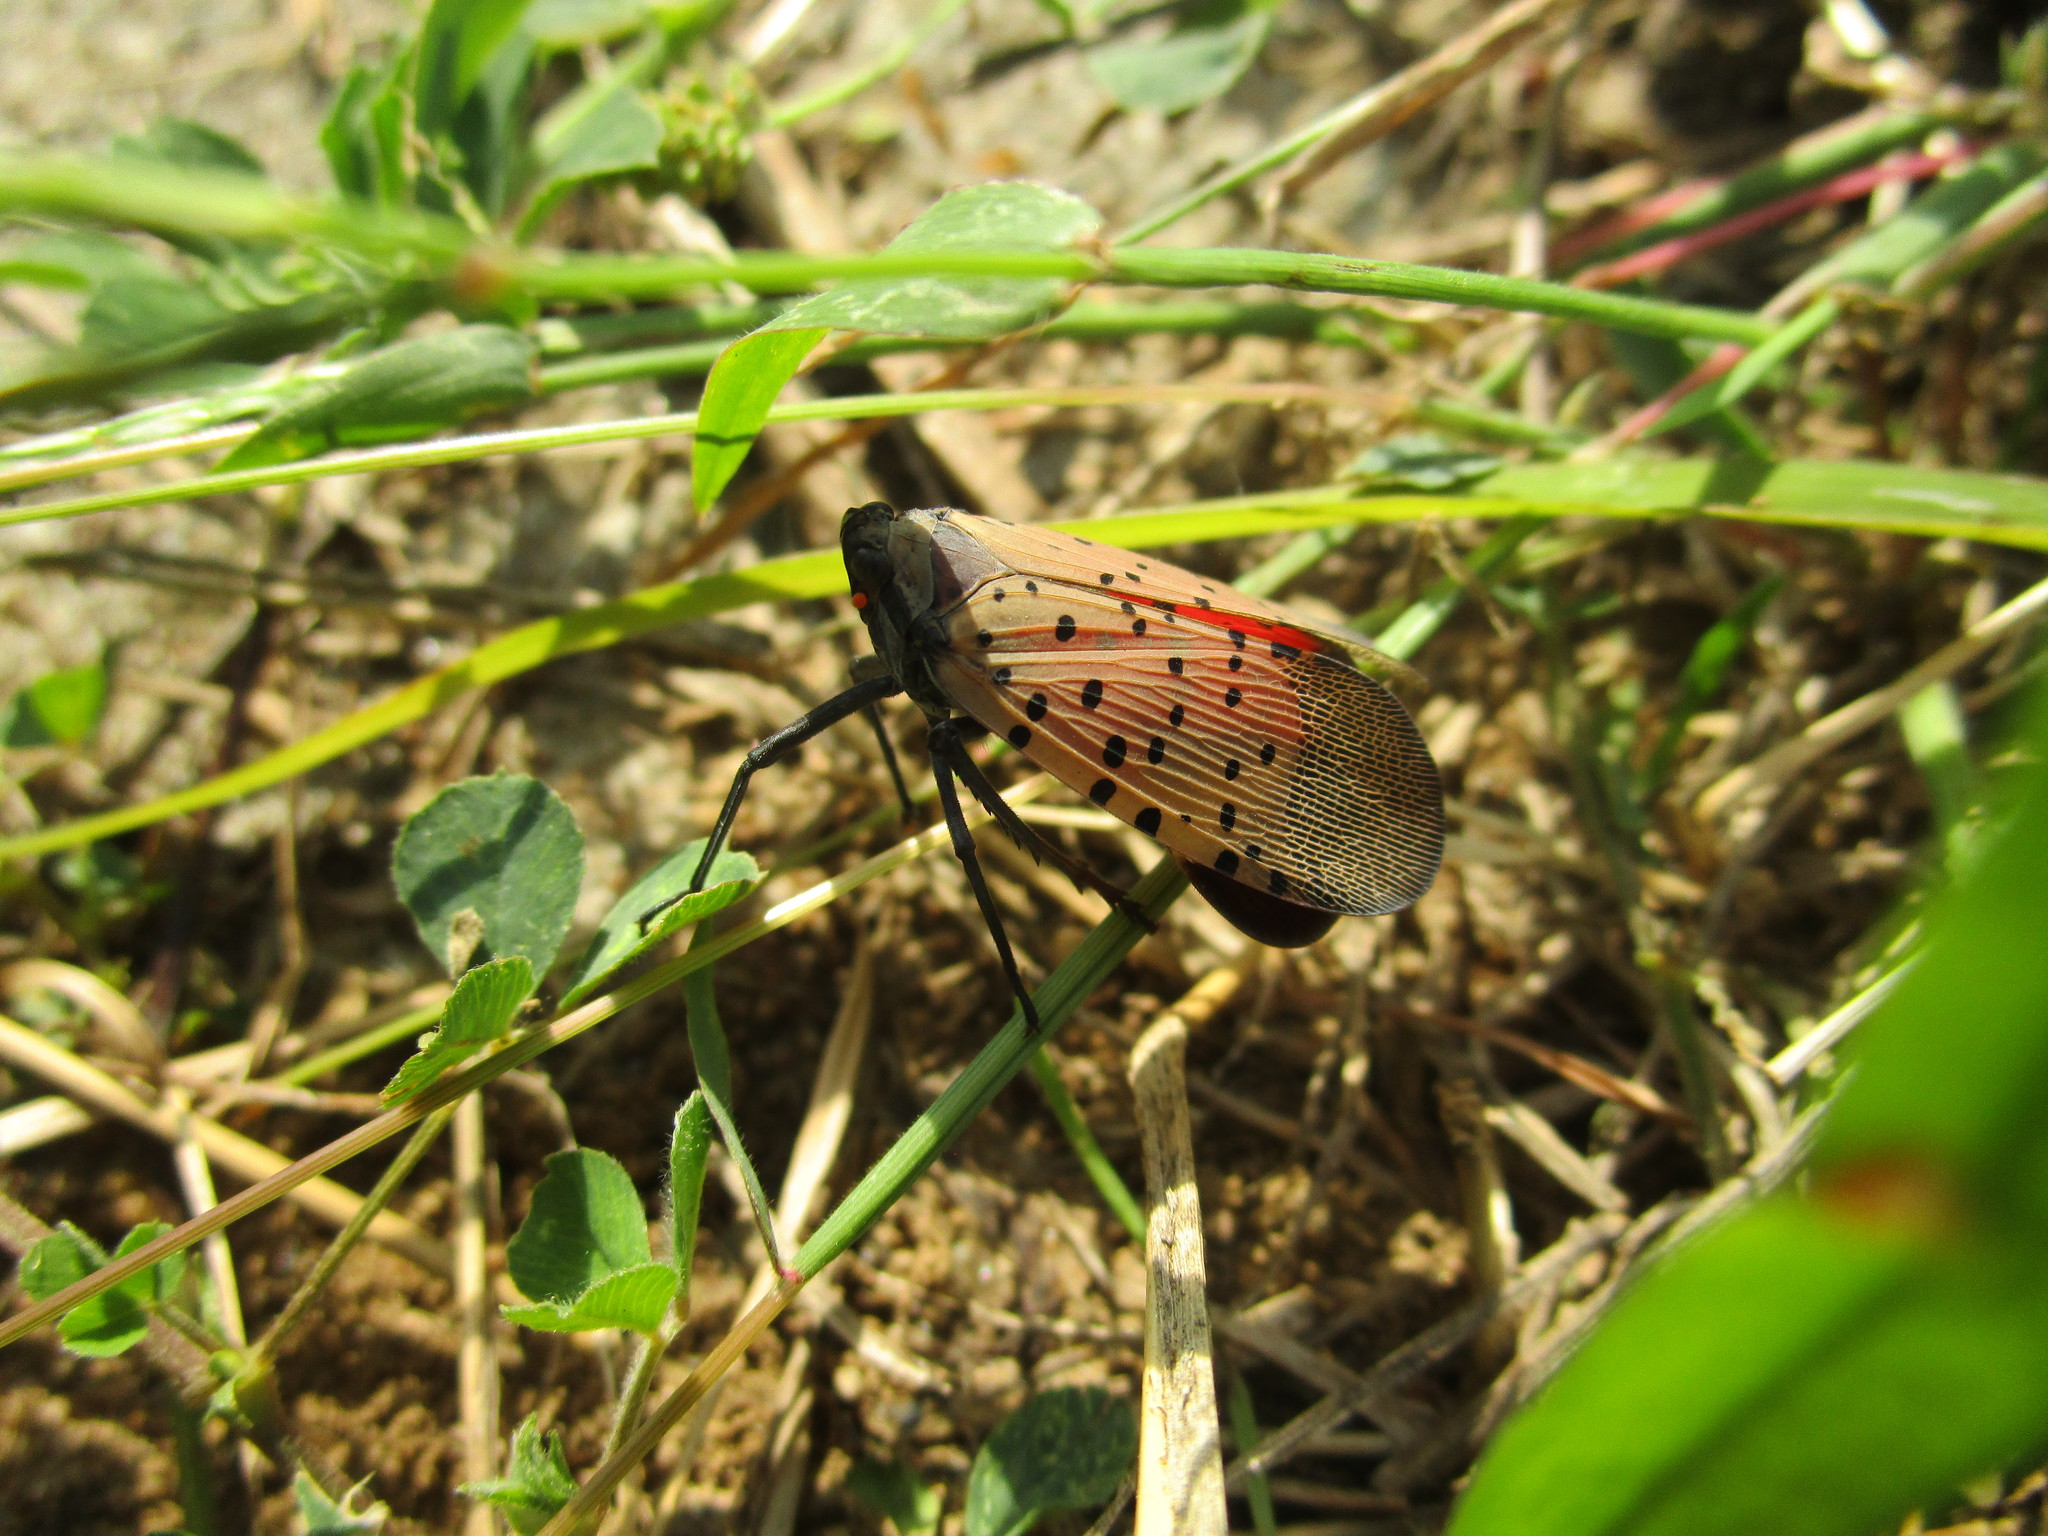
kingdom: Animalia
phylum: Arthropoda
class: Insecta
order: Hemiptera
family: Fulgoridae
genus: Lycorma
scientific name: Lycorma delicatula
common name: Spotted lanternfly
